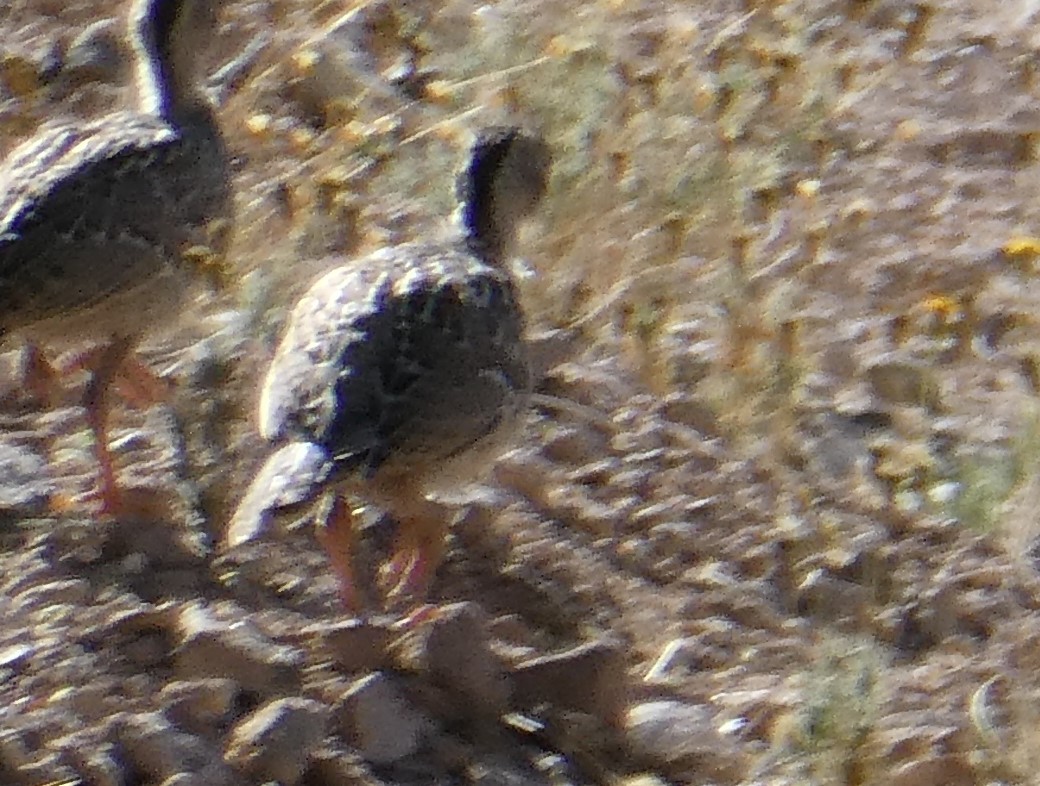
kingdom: Animalia
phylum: Chordata
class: Aves
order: Galliformes
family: Odontophoridae
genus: Callipepla
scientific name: Callipepla gambelii
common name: Gambel's quail
